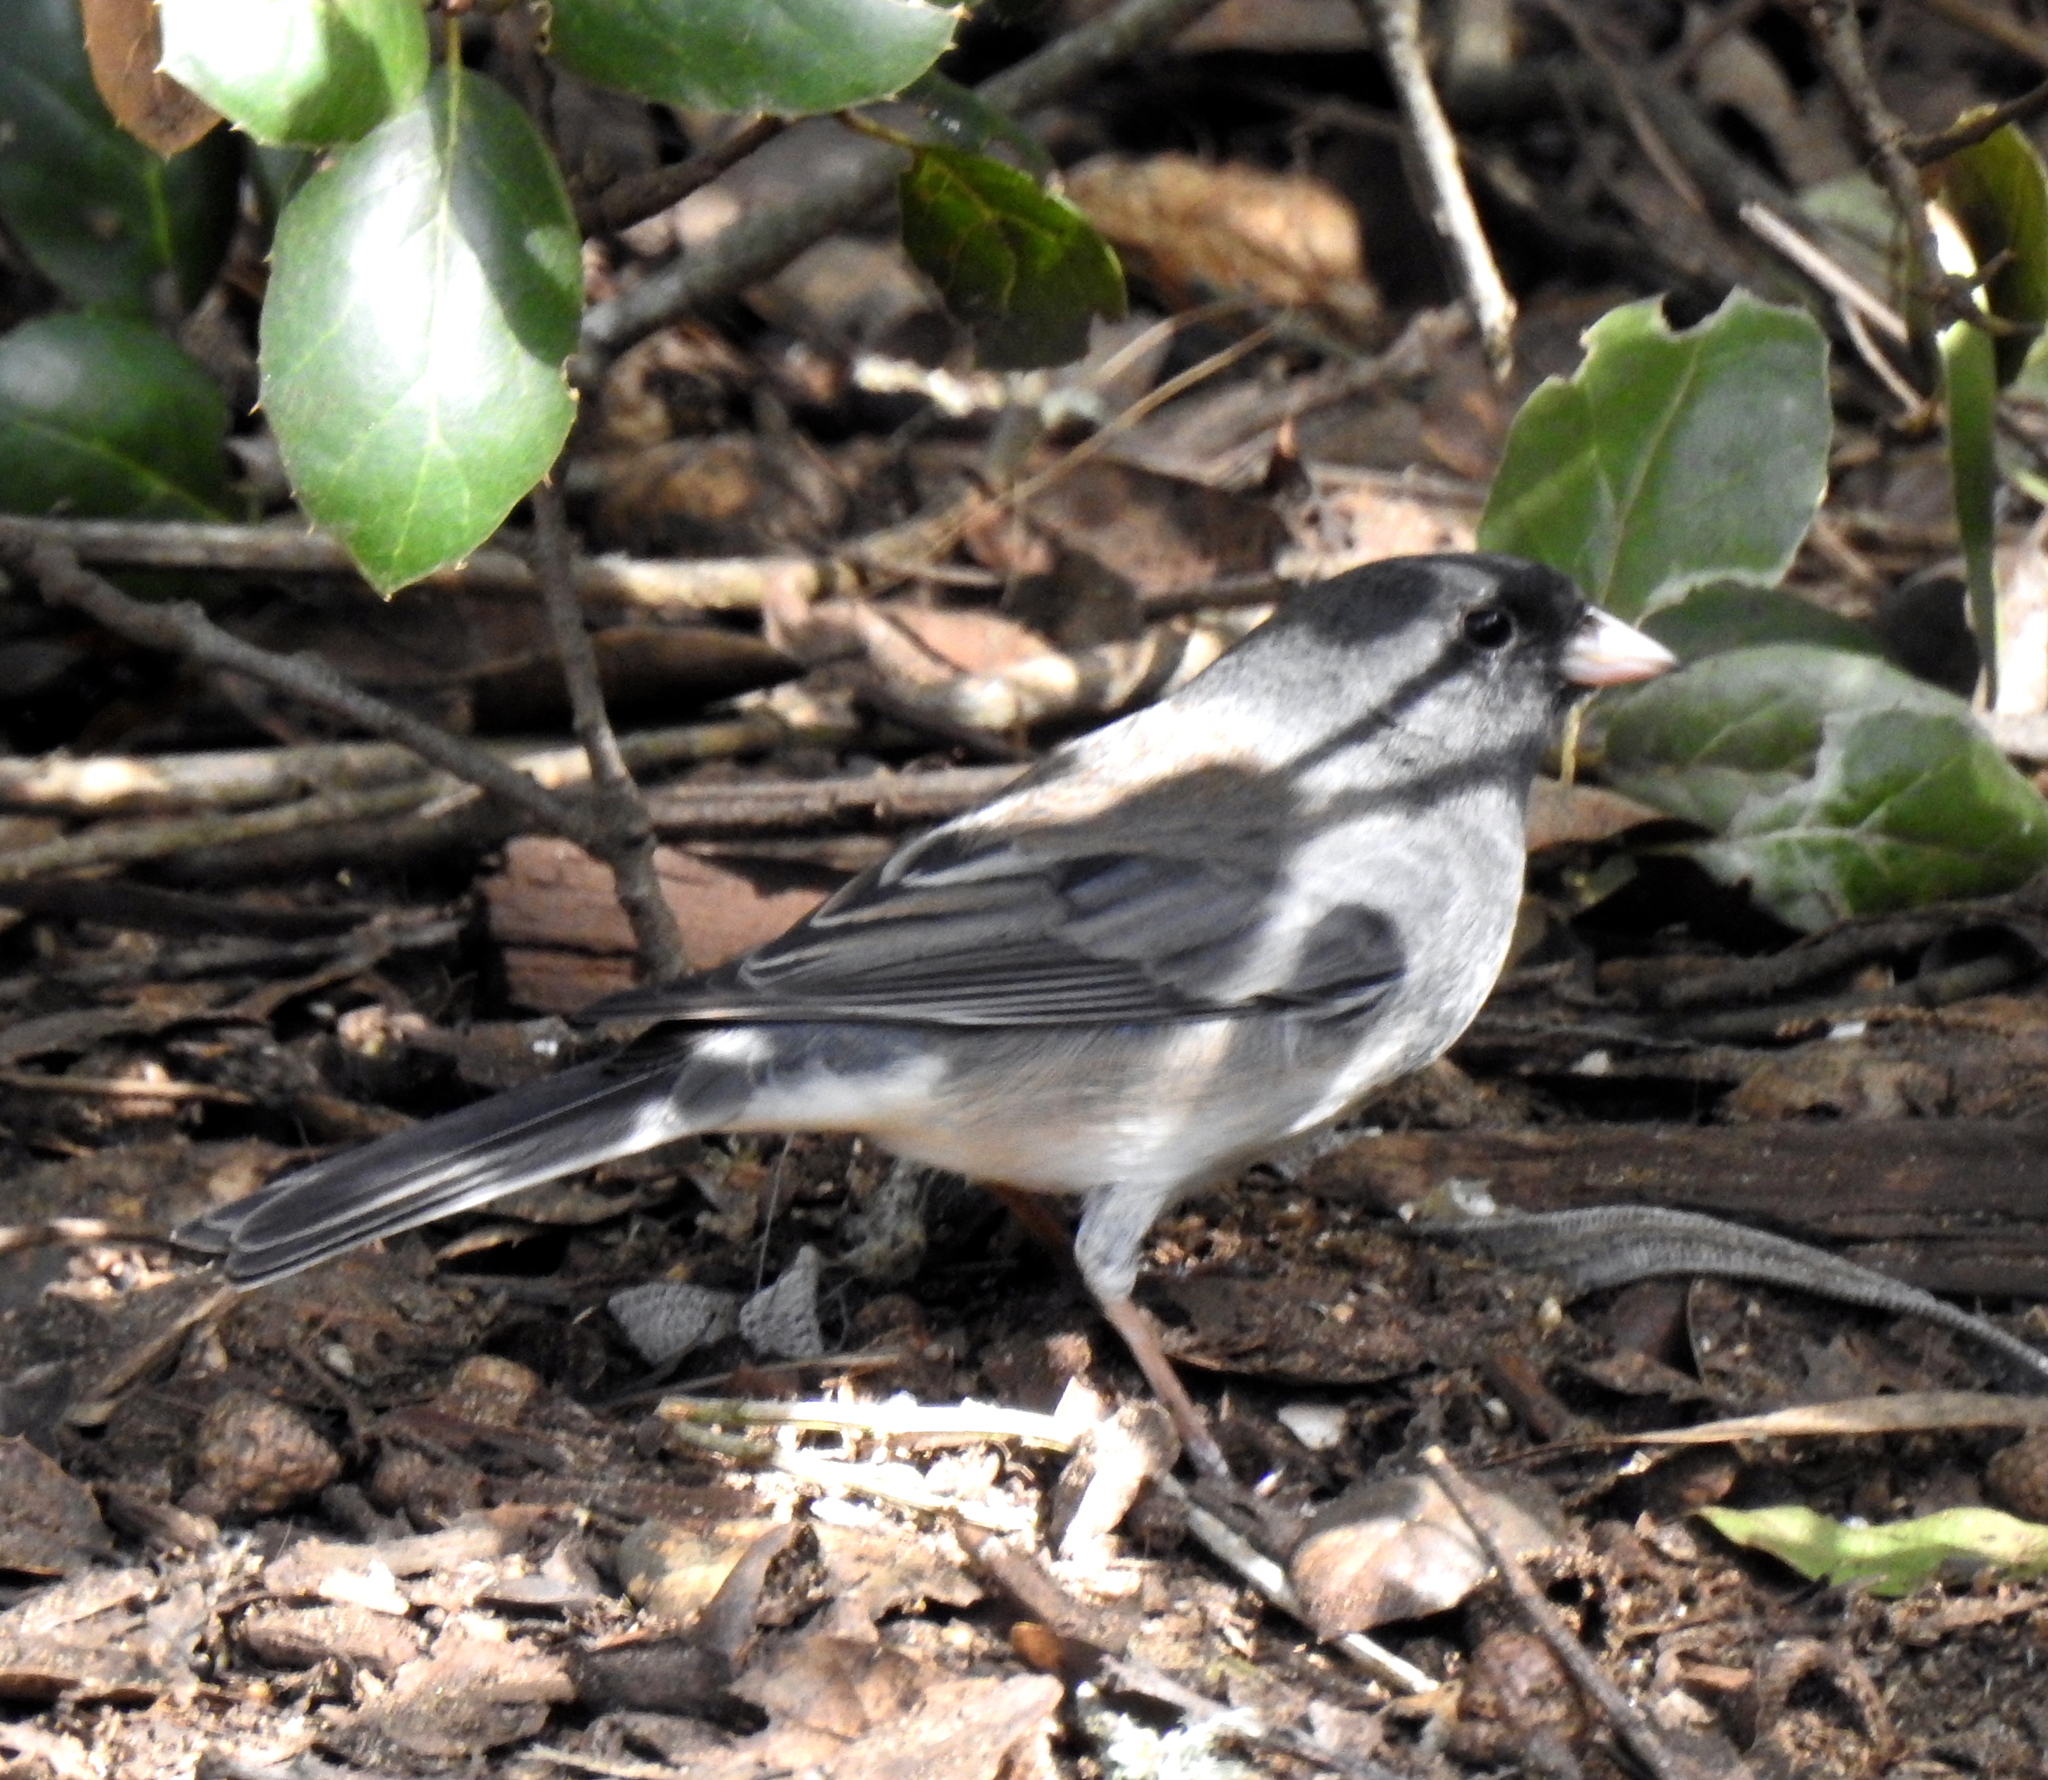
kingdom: Animalia
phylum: Chordata
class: Aves
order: Passeriformes
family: Passerellidae
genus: Junco
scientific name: Junco hyemalis
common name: Dark-eyed junco
